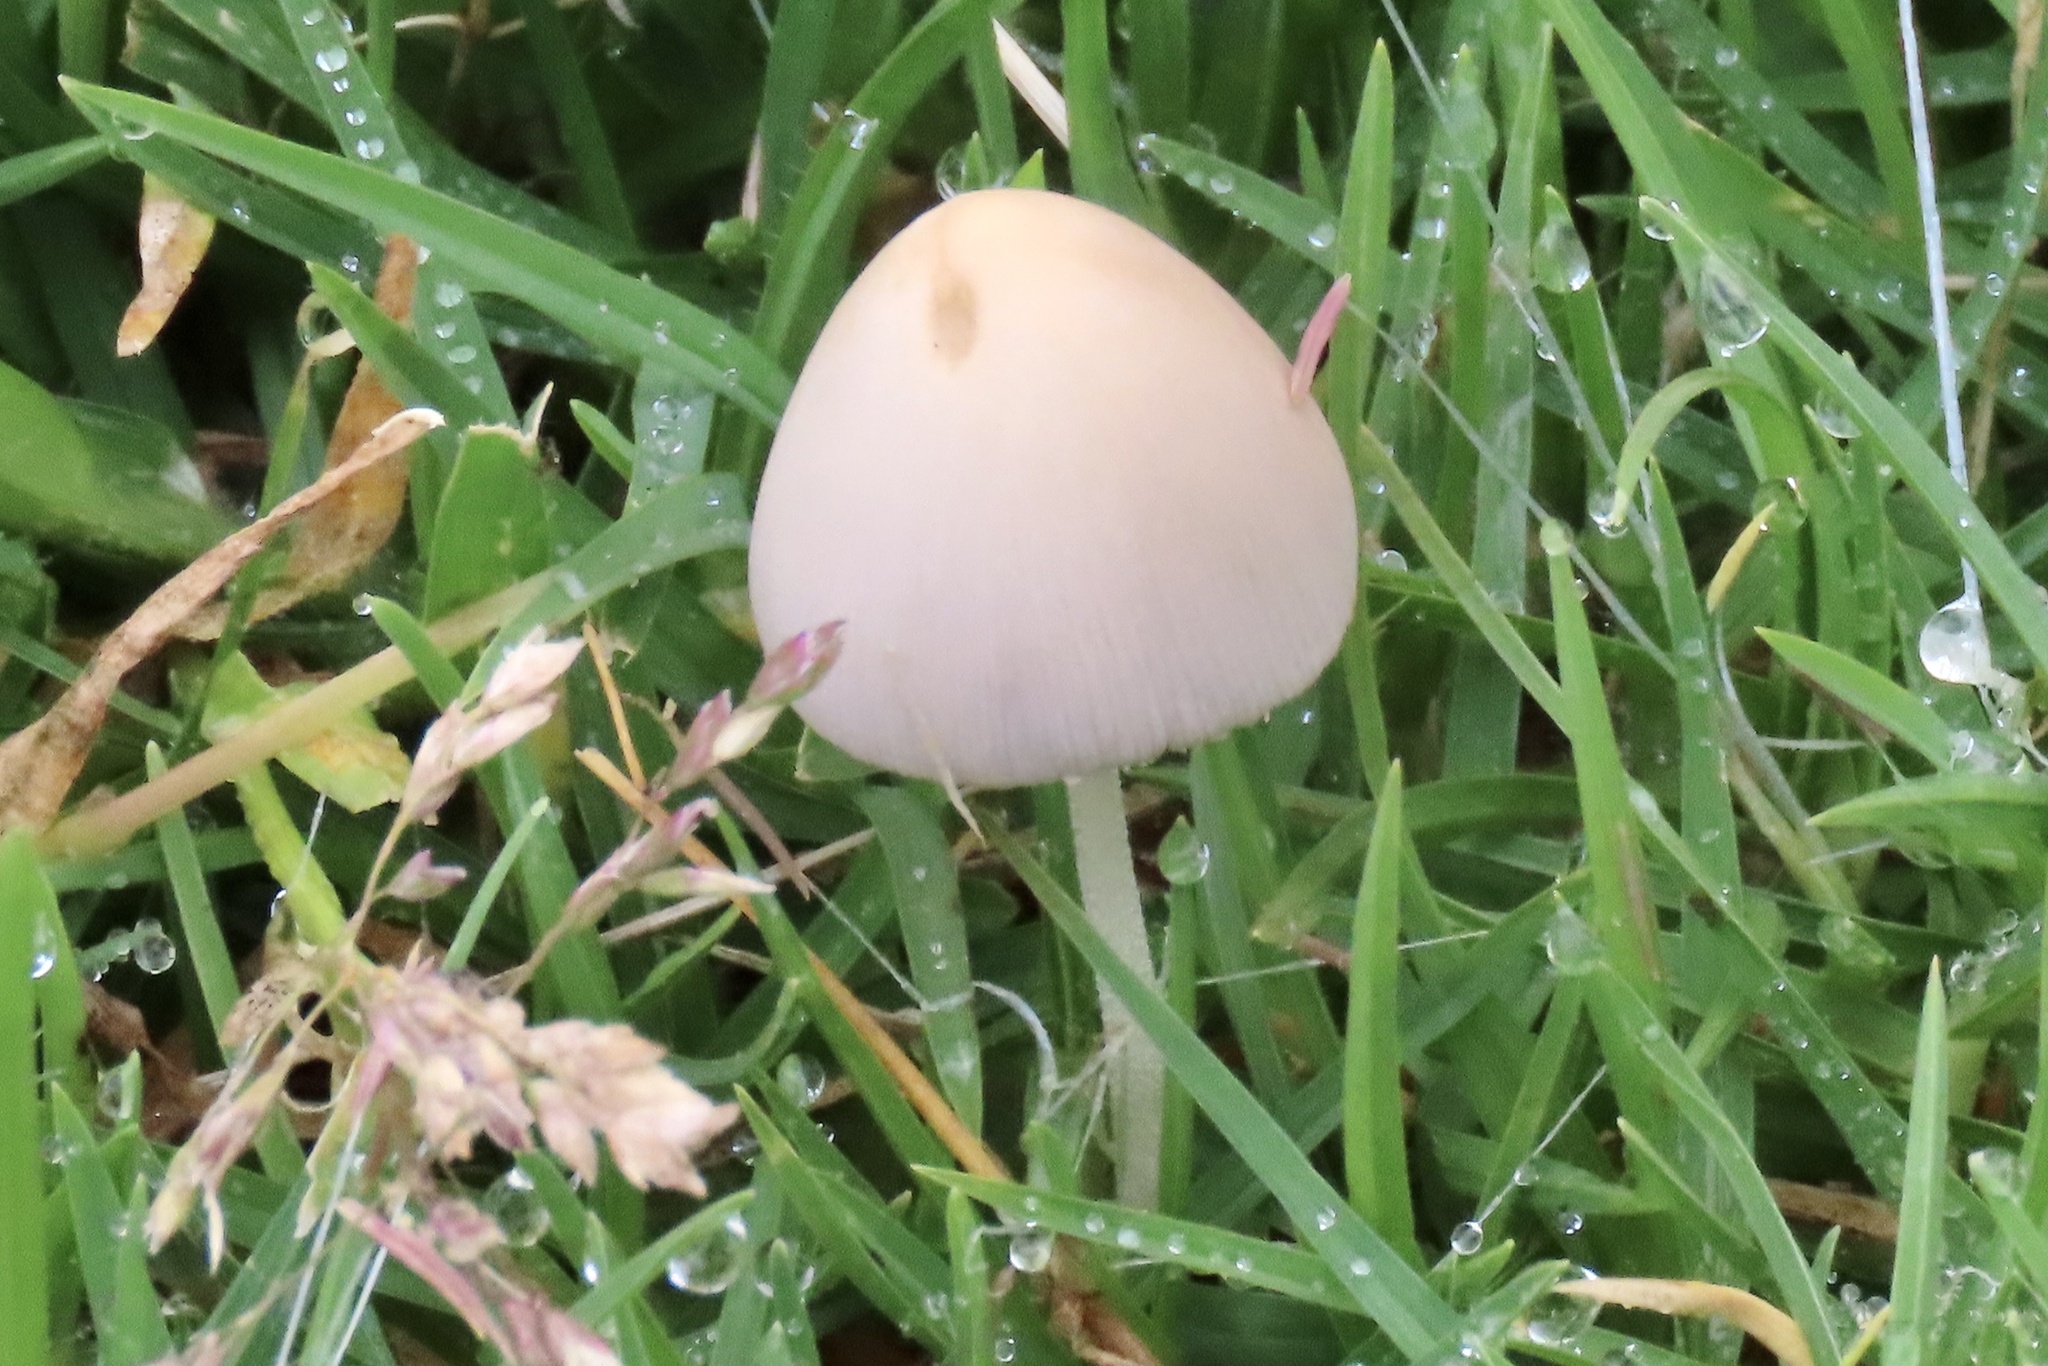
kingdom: Fungi
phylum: Basidiomycota
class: Agaricomycetes
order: Agaricales
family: Bolbitiaceae
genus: Conocybe
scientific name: Conocybe apala
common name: Milky conecap
